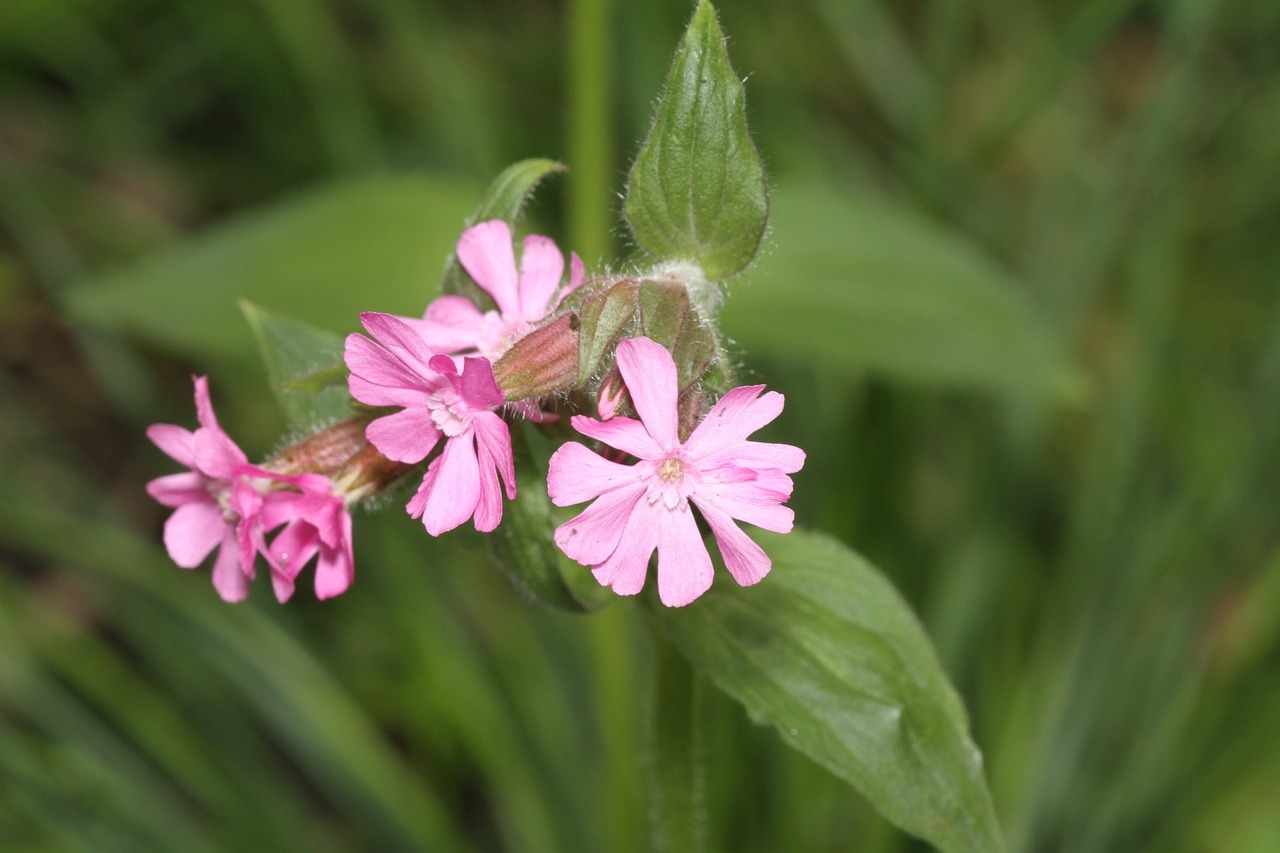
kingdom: Plantae
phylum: Tracheophyta
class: Magnoliopsida
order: Caryophyllales
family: Caryophyllaceae
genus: Silene
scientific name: Silene dioica
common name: Red campion
